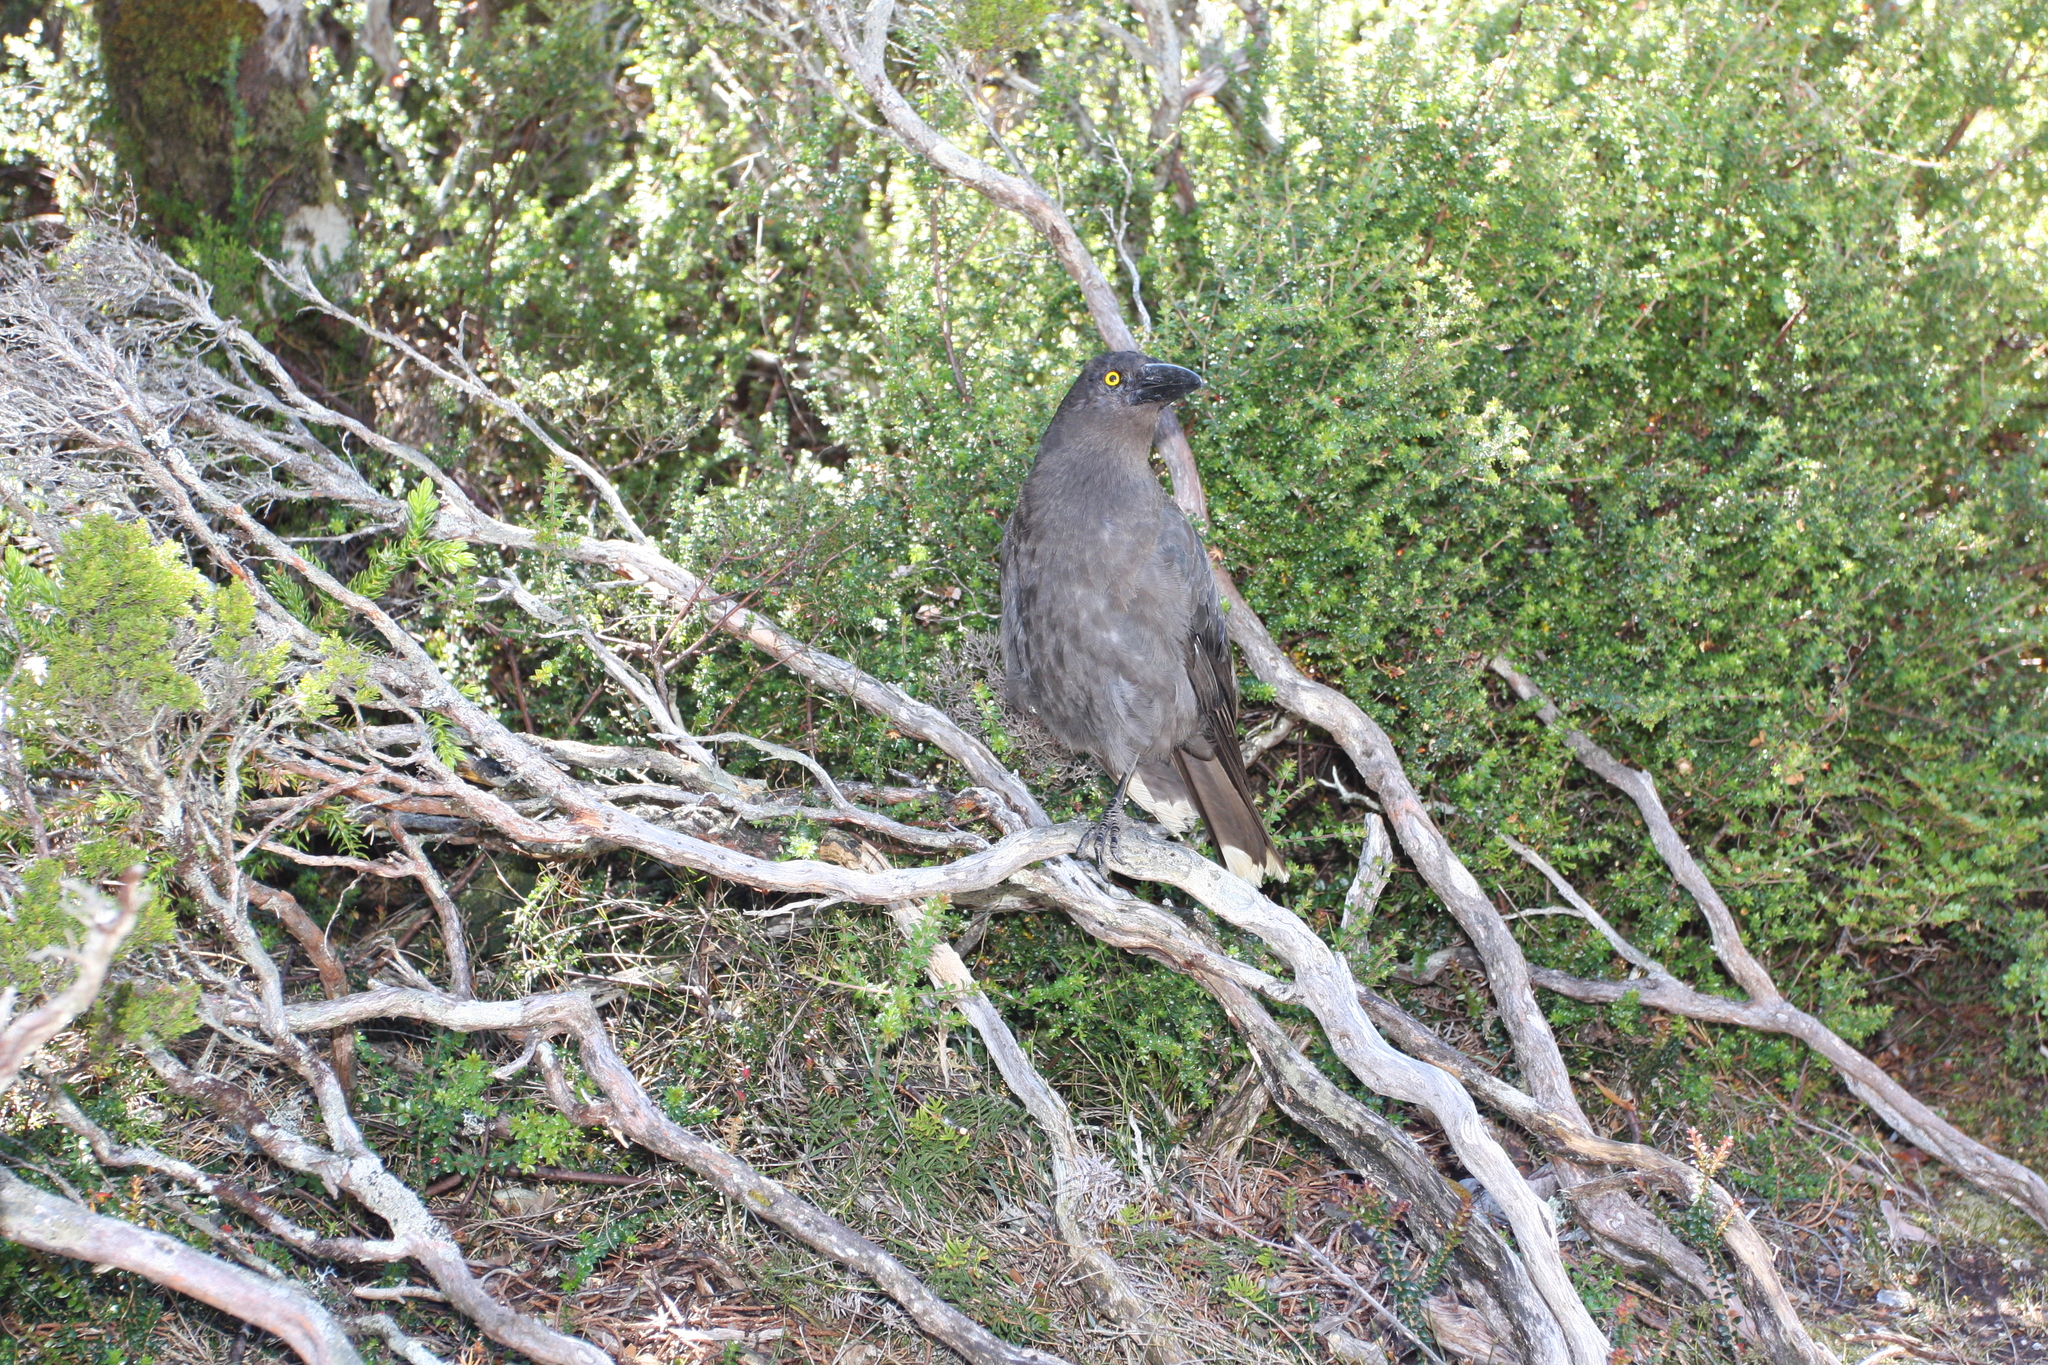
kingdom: Animalia
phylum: Chordata
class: Aves
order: Passeriformes
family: Cracticidae
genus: Strepera
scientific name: Strepera fuliginosa
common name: Black currawong
